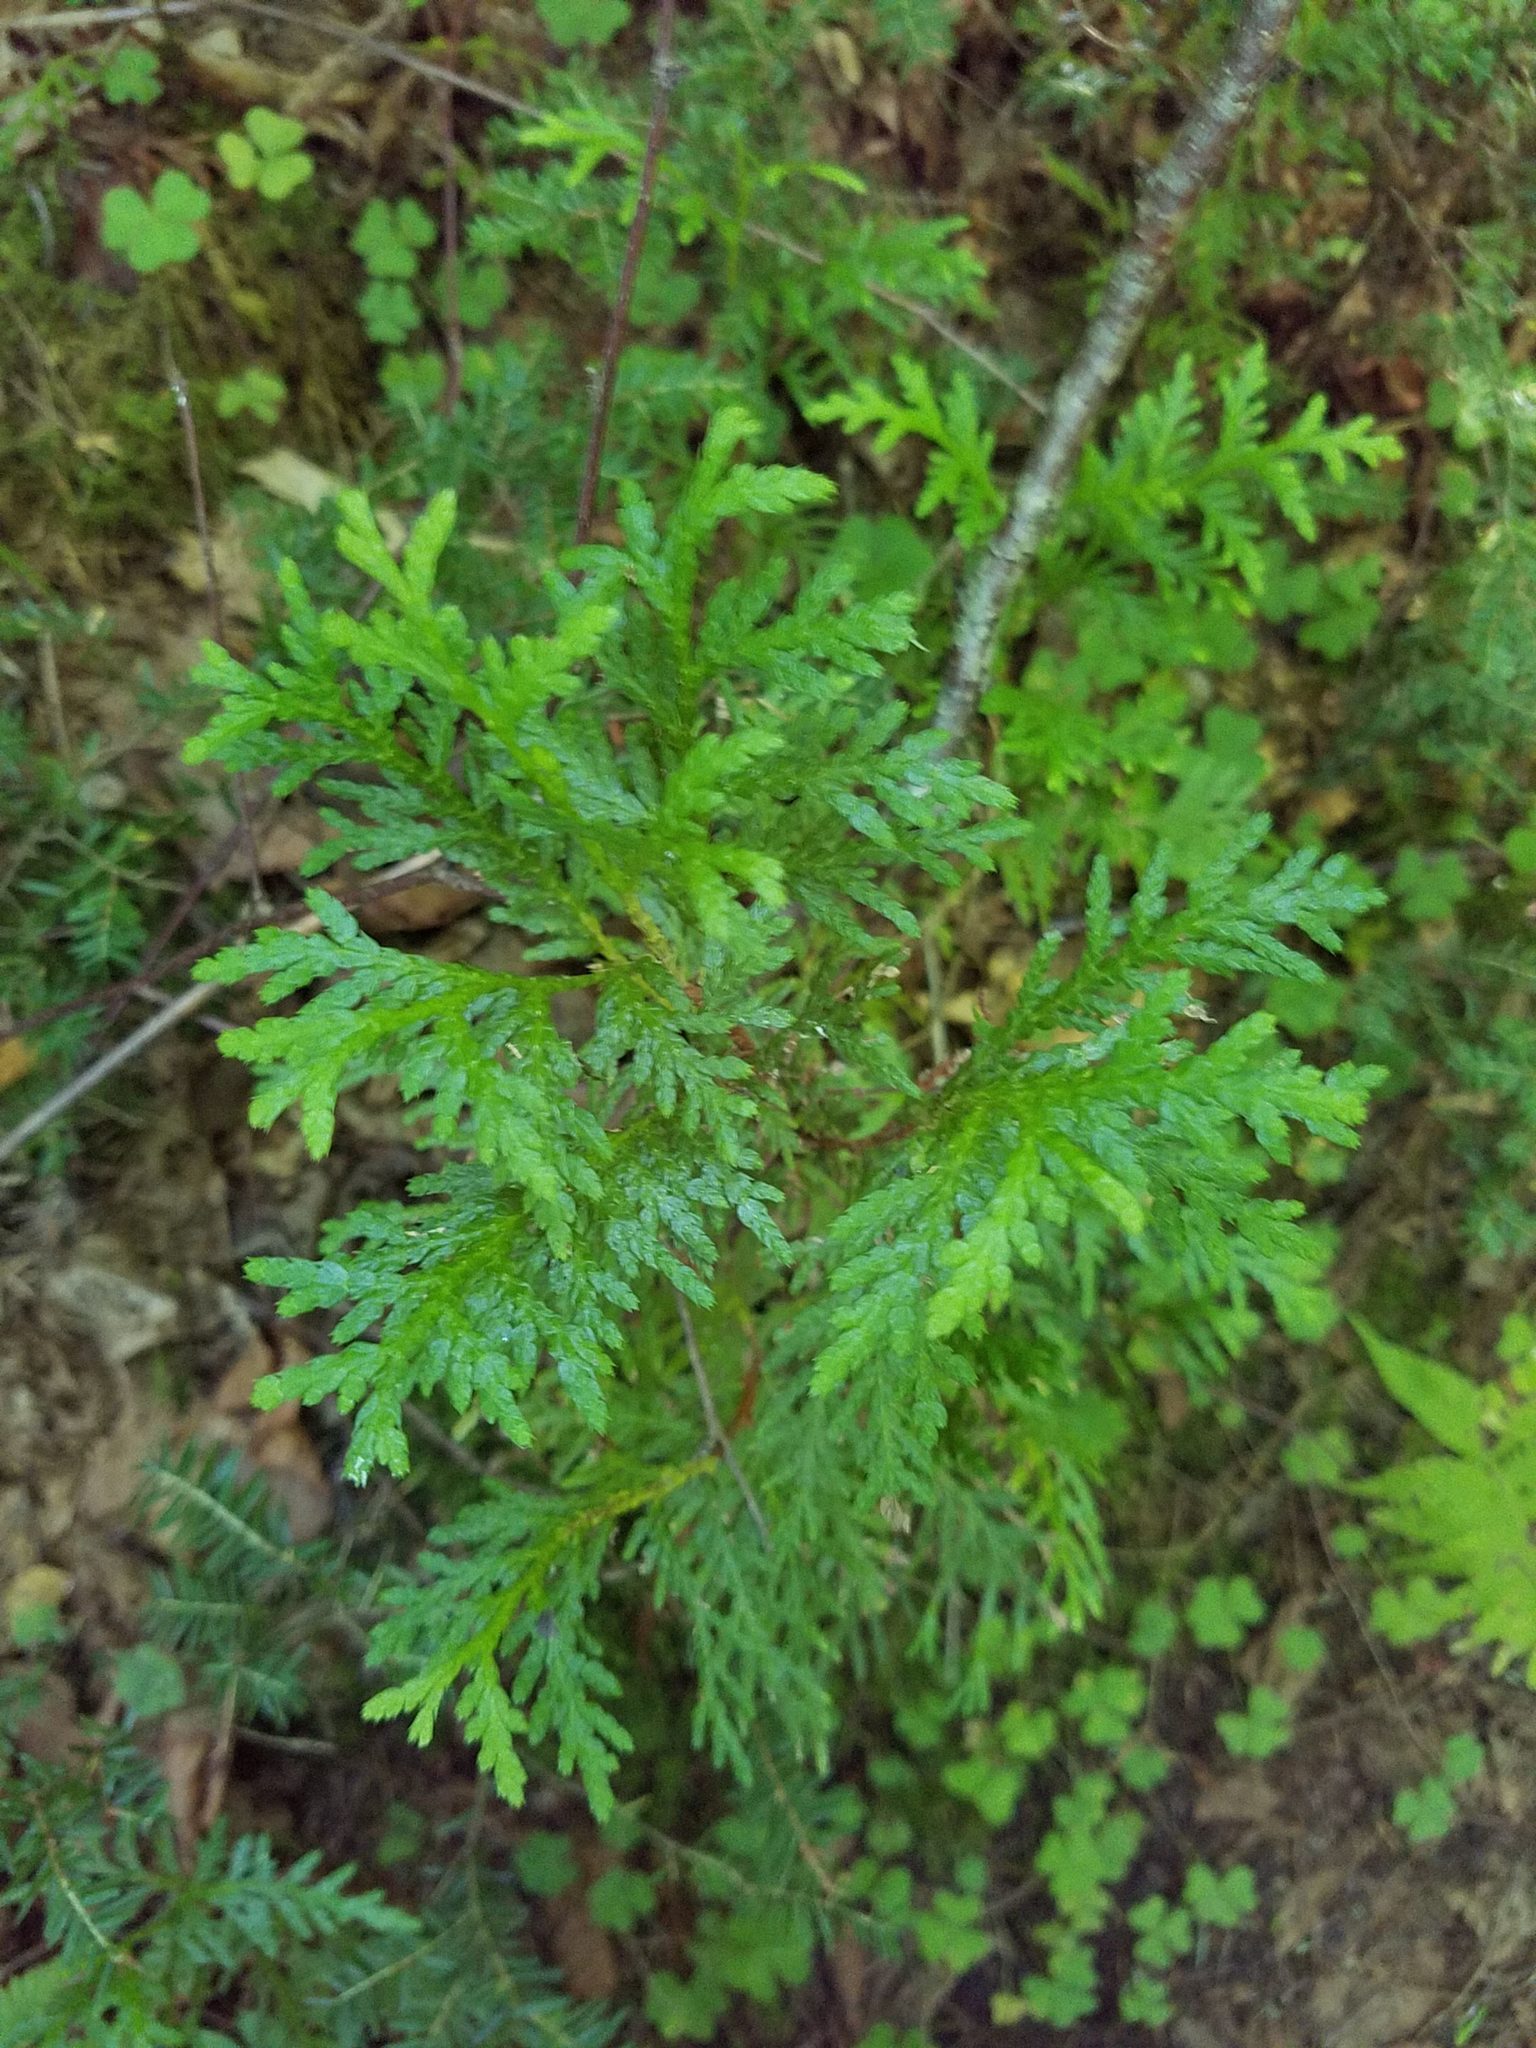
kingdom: Plantae
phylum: Tracheophyta
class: Pinopsida
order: Pinales
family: Cupressaceae
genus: Thuja
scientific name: Thuja occidentalis
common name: Northern white-cedar
